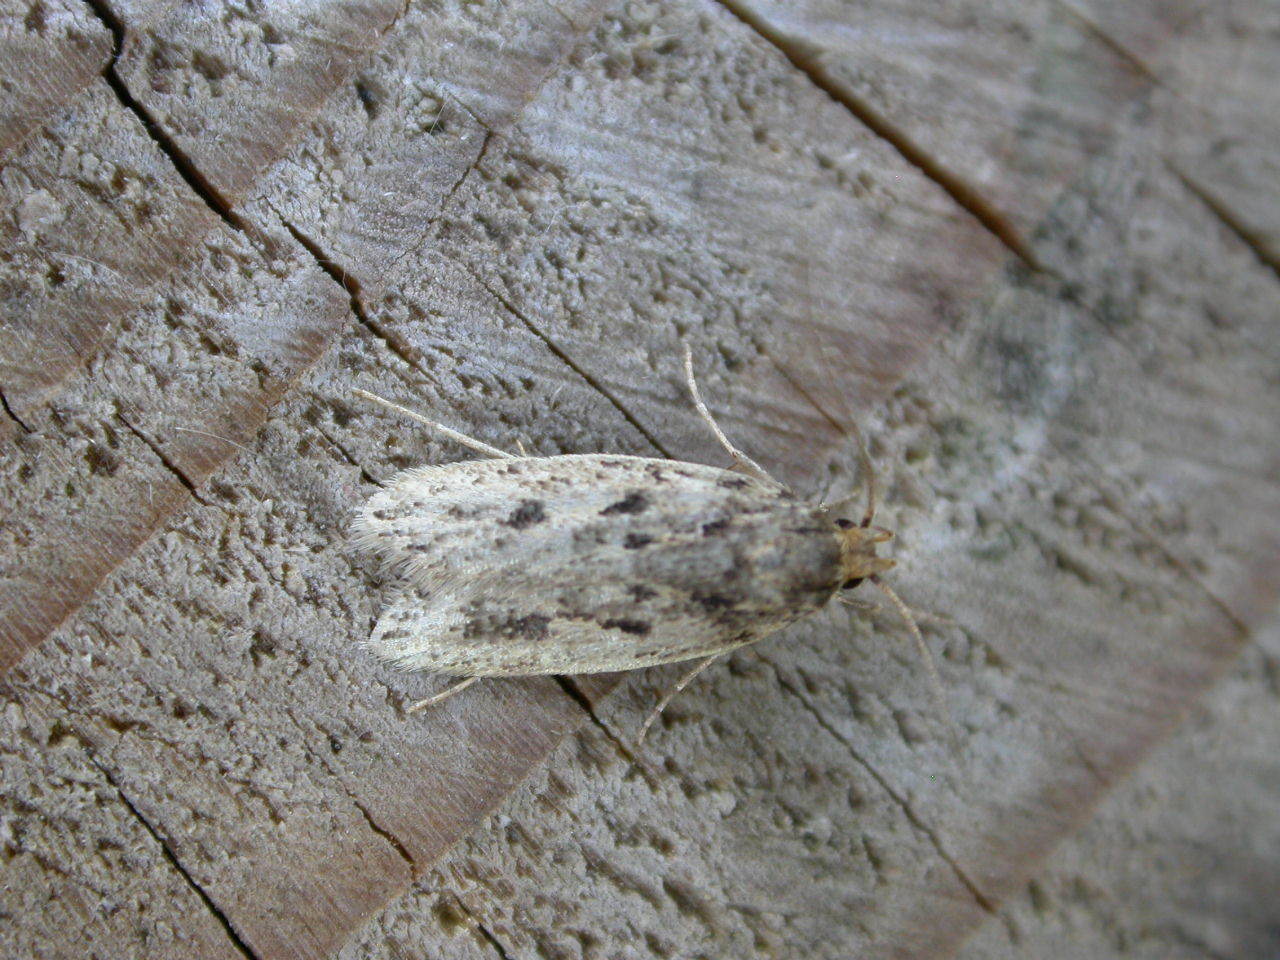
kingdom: Animalia
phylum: Arthropoda
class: Insecta
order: Lepidoptera
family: Oecophoridae
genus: Hofmannophila
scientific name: Hofmannophila pseudospretella
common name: Brown house moth
